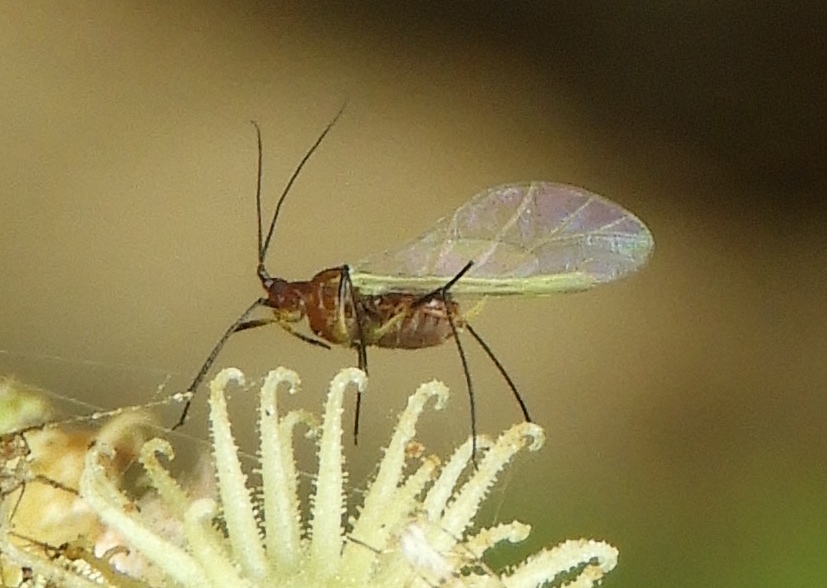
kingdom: Animalia
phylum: Arthropoda
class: Insecta
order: Hemiptera
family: Aphididae
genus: Uroleucon
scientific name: Uroleucon
